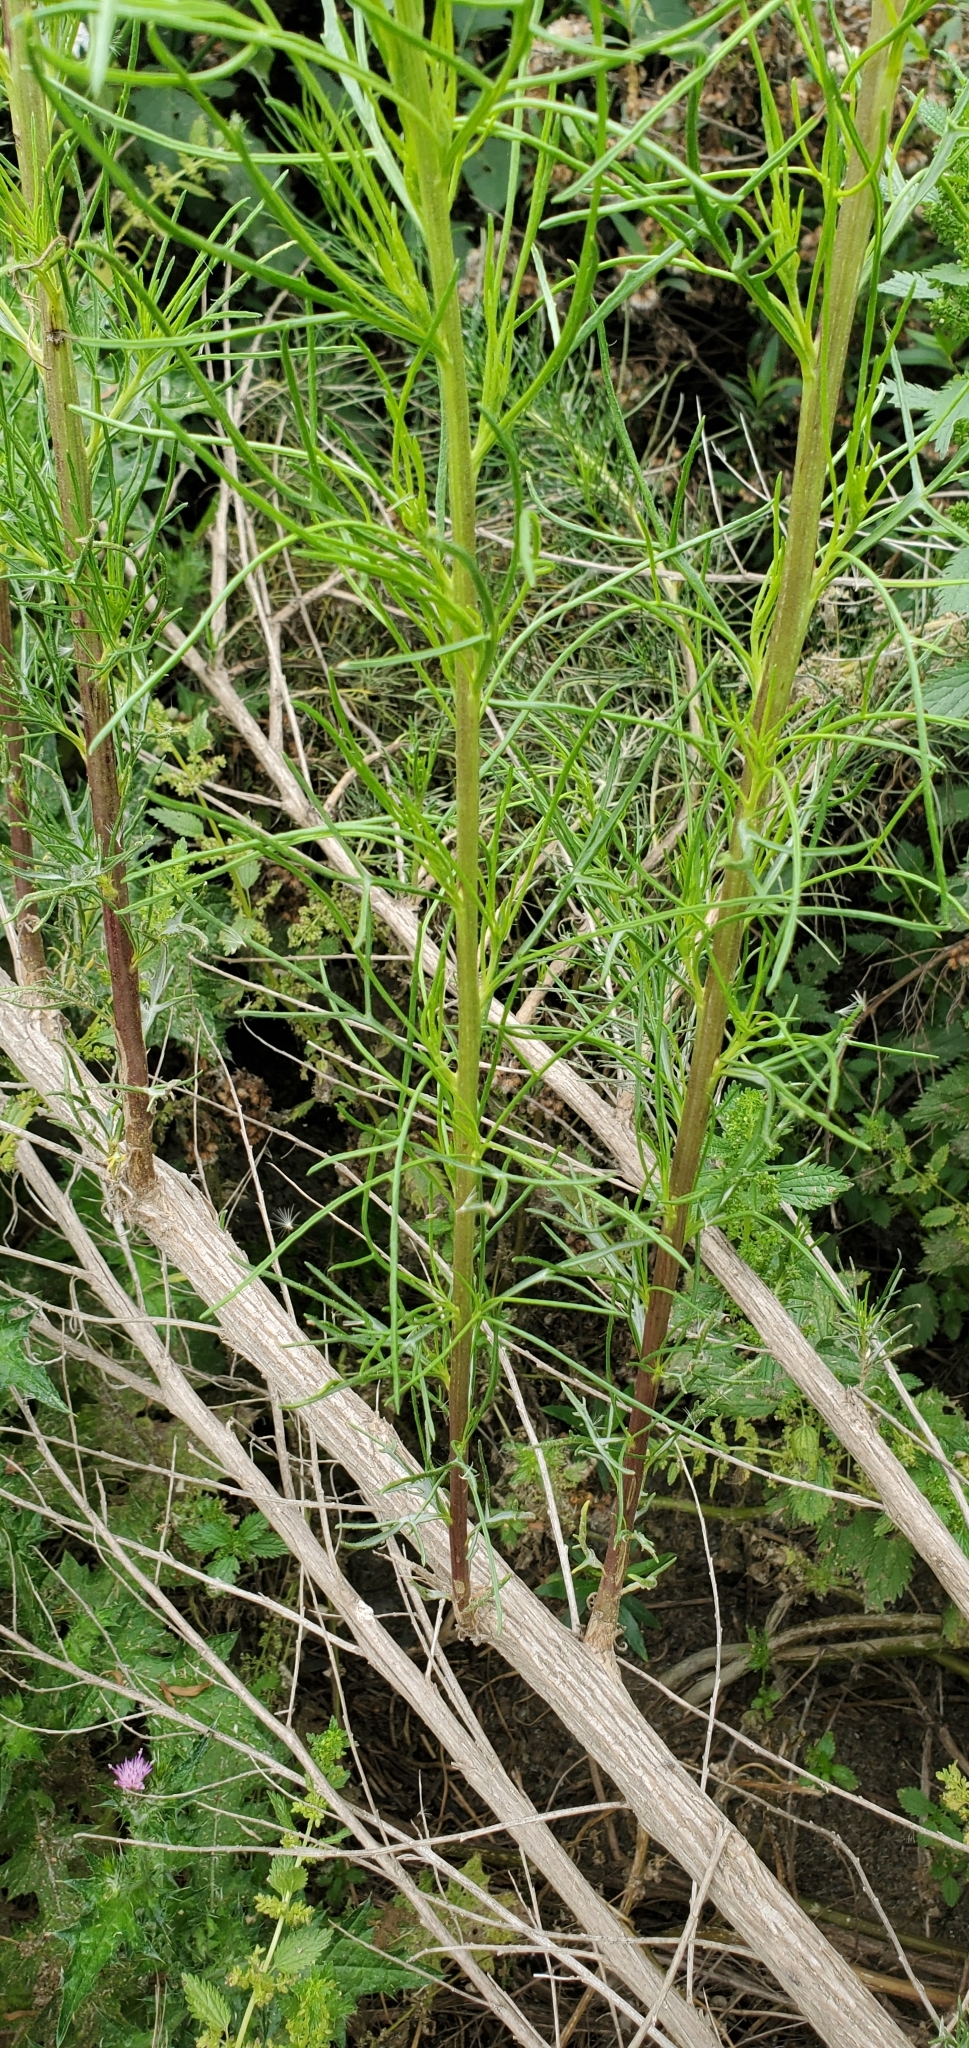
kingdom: Plantae
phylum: Tracheophyta
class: Magnoliopsida
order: Asterales
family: Asteraceae
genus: Ambrosia
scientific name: Ambrosia monogyra
